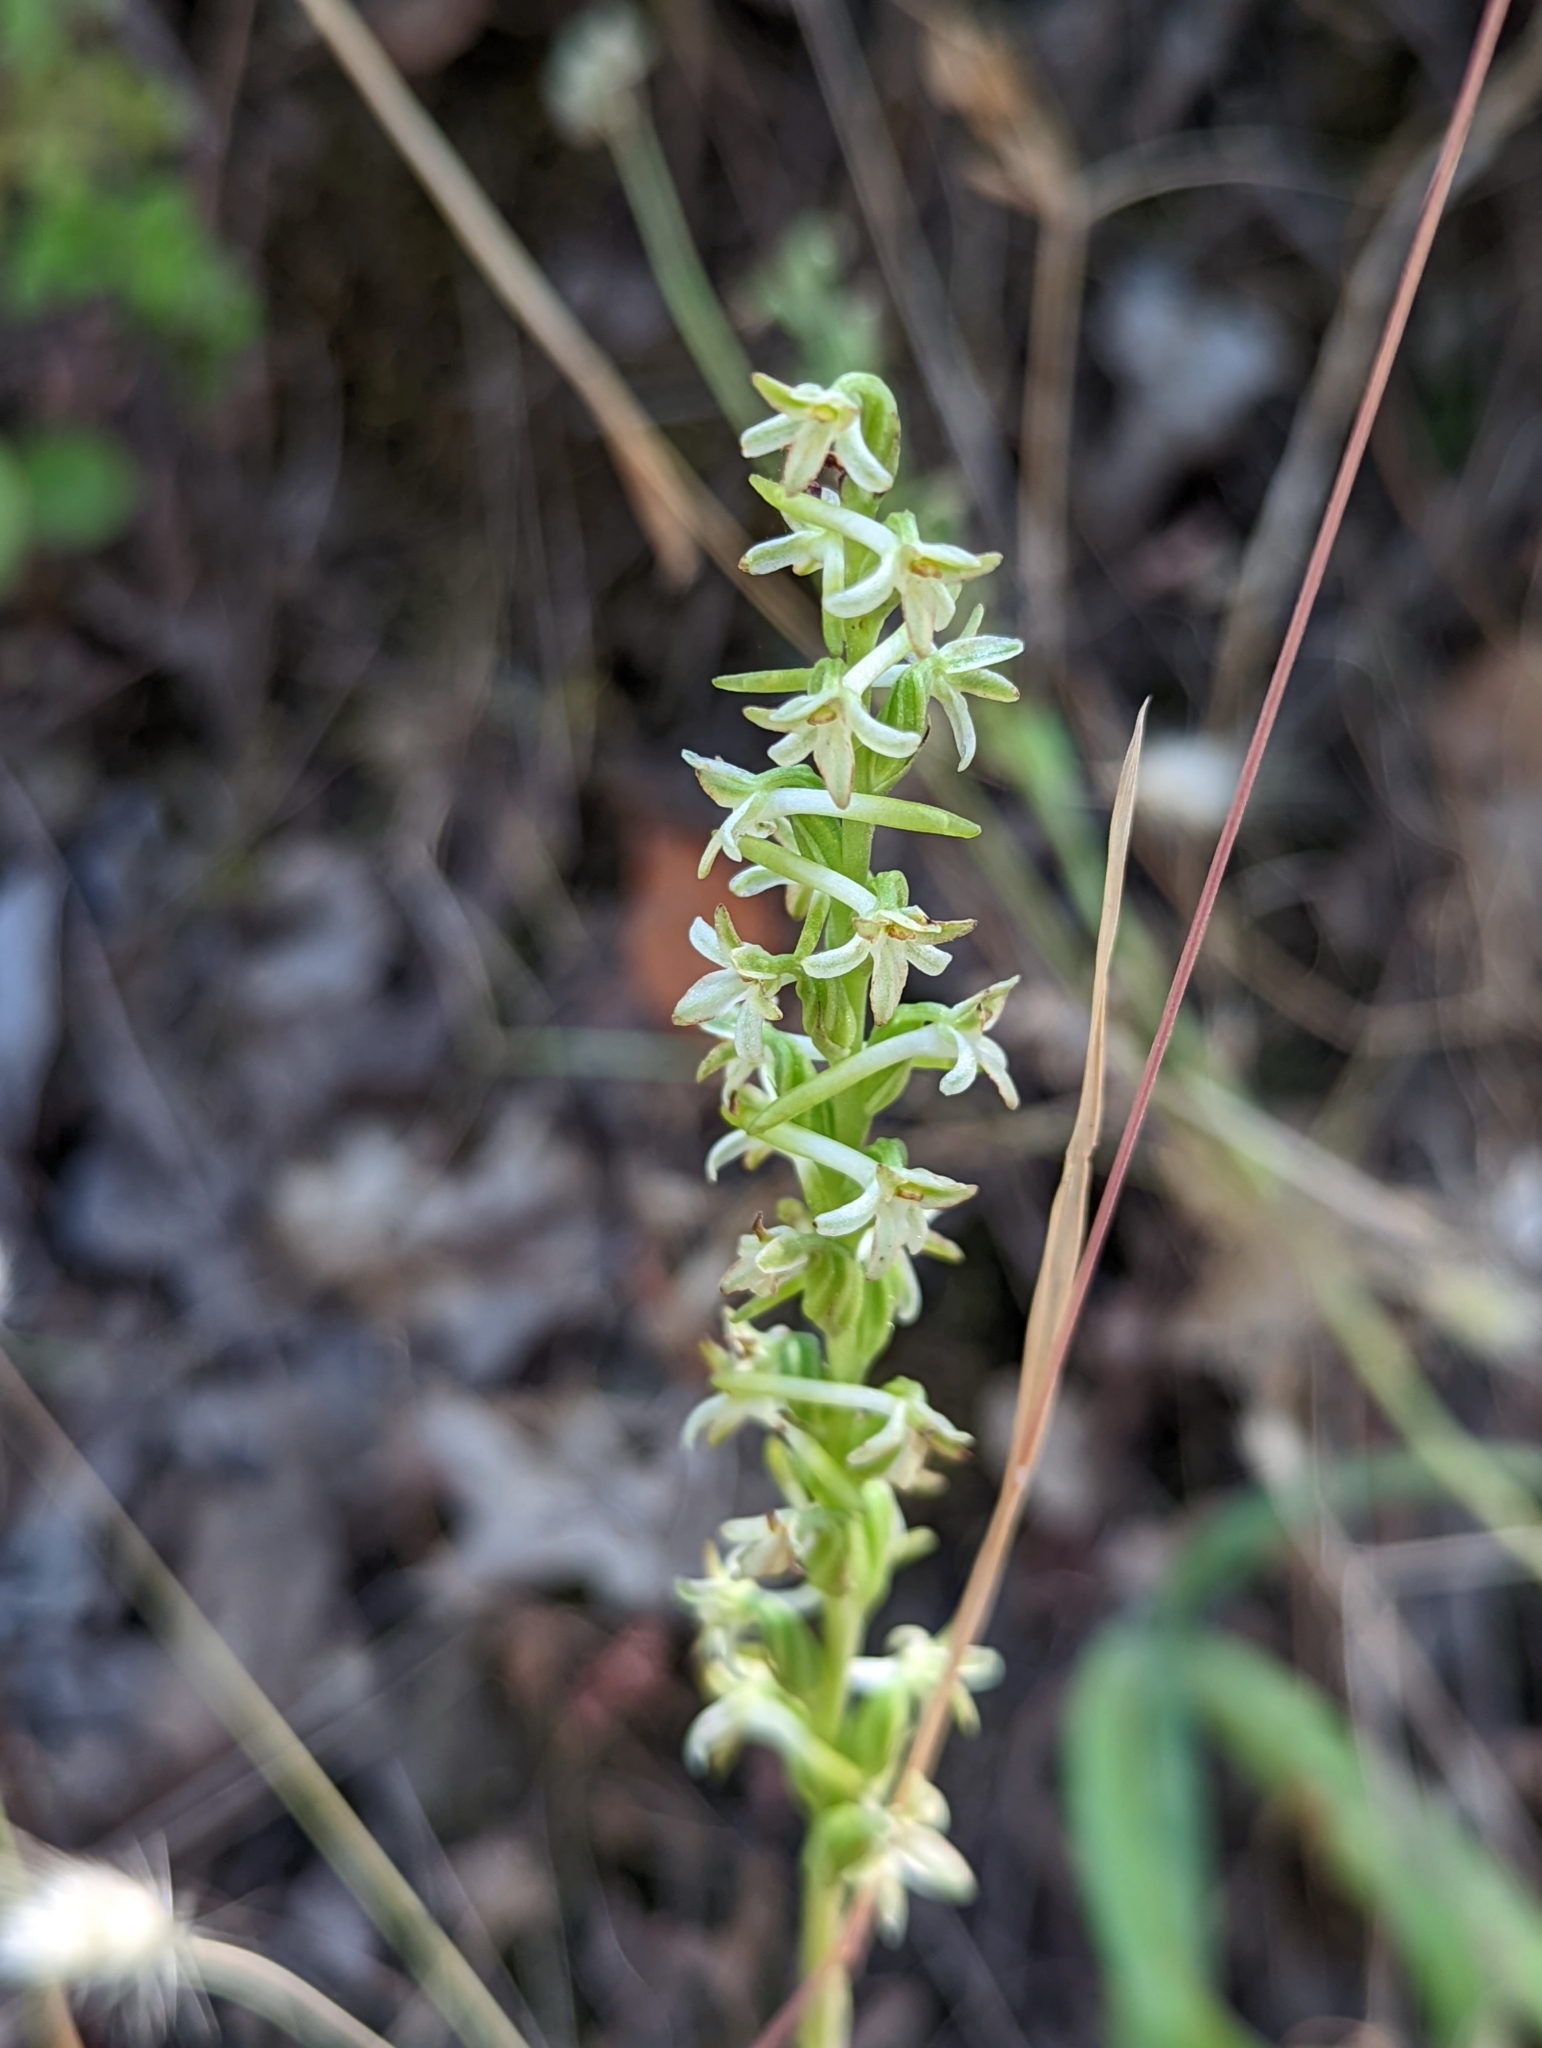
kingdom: Plantae
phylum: Tracheophyta
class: Liliopsida
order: Asparagales
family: Orchidaceae
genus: Platanthera
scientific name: Platanthera transversa
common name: Royal rein orchid
